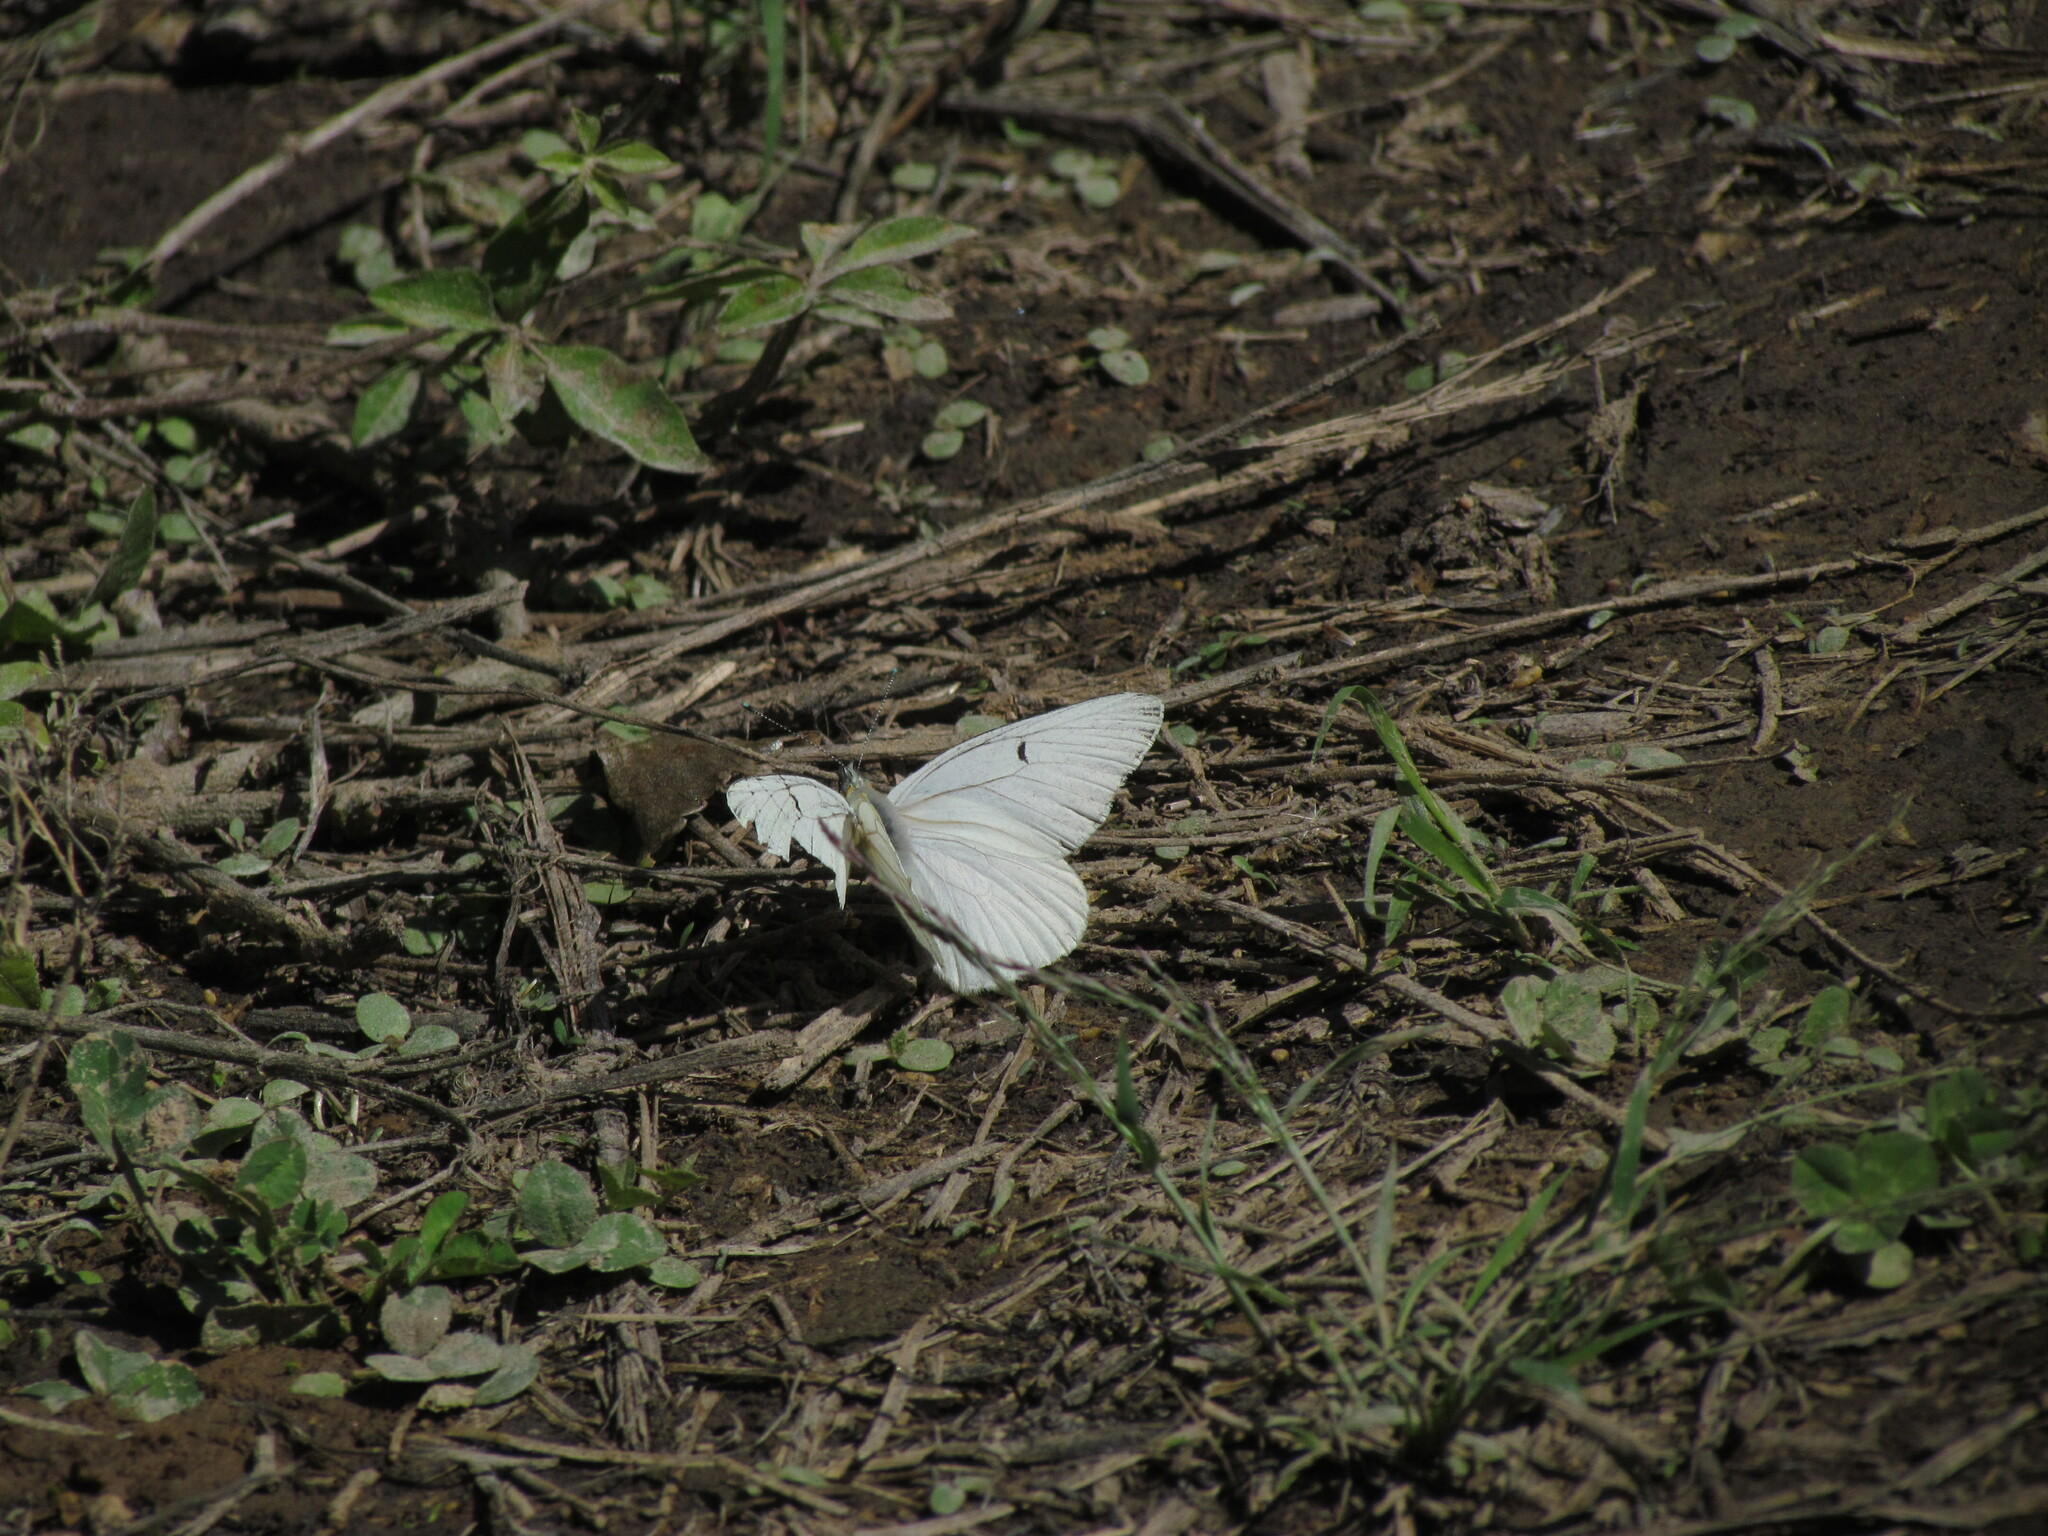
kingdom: Animalia
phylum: Arthropoda
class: Insecta
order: Lepidoptera
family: Pieridae
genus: Tatochila
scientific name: Tatochila mercedis
